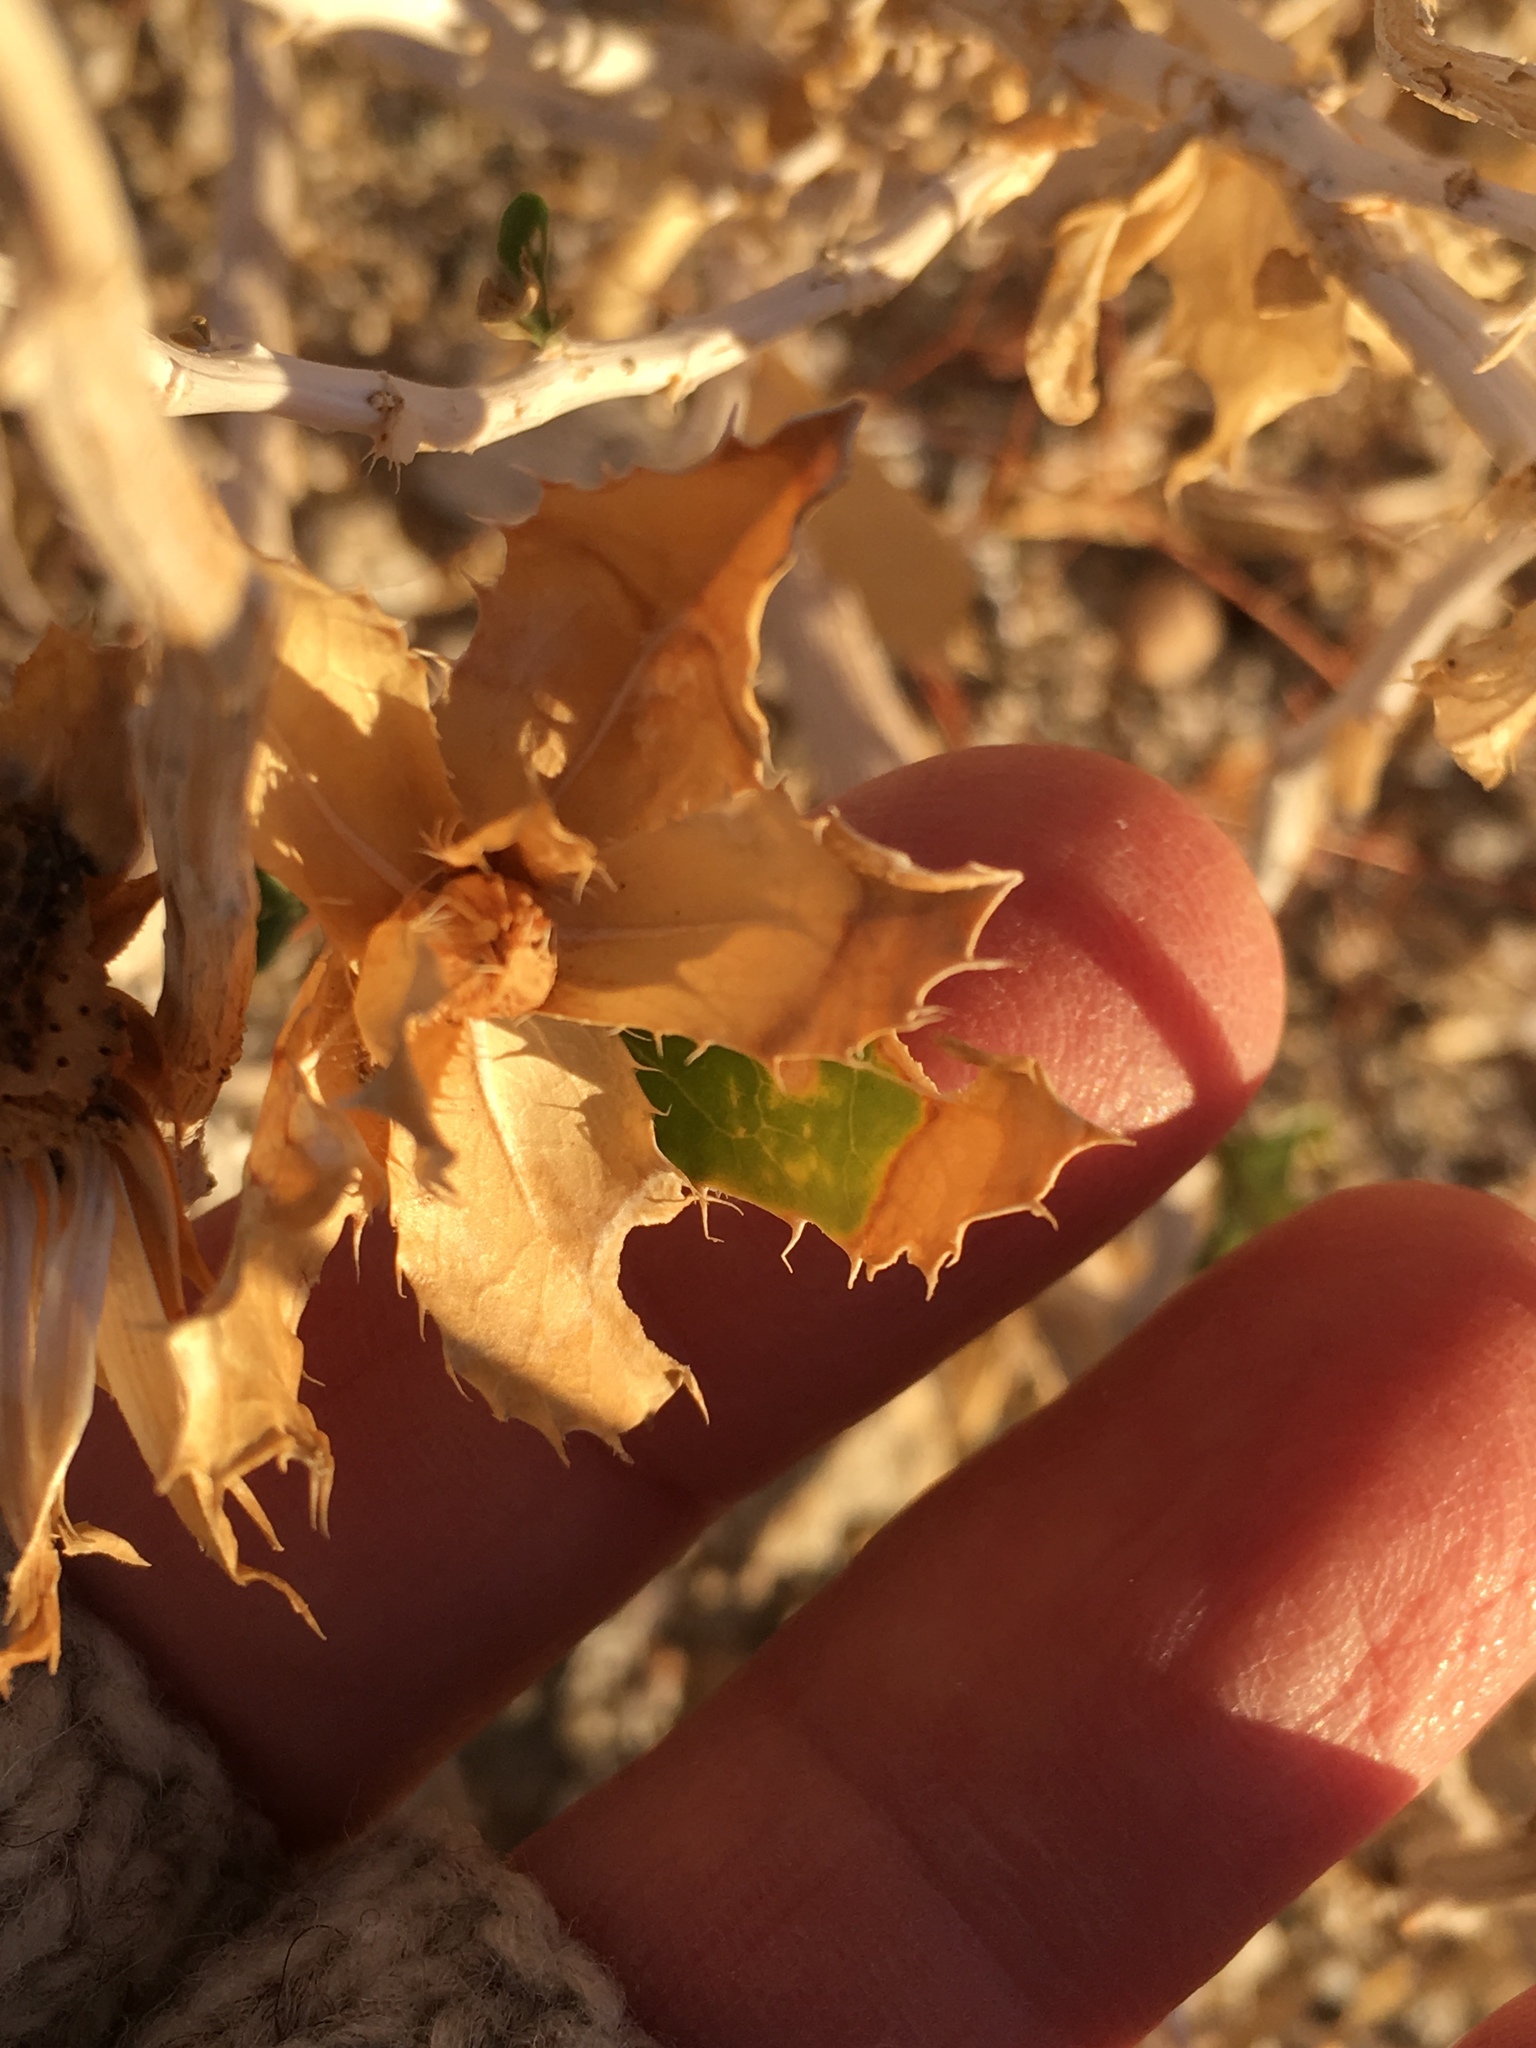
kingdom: Plantae
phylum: Tracheophyta
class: Magnoliopsida
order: Asterales
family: Asteraceae
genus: Xylorhiza
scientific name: Xylorhiza orcuttii
